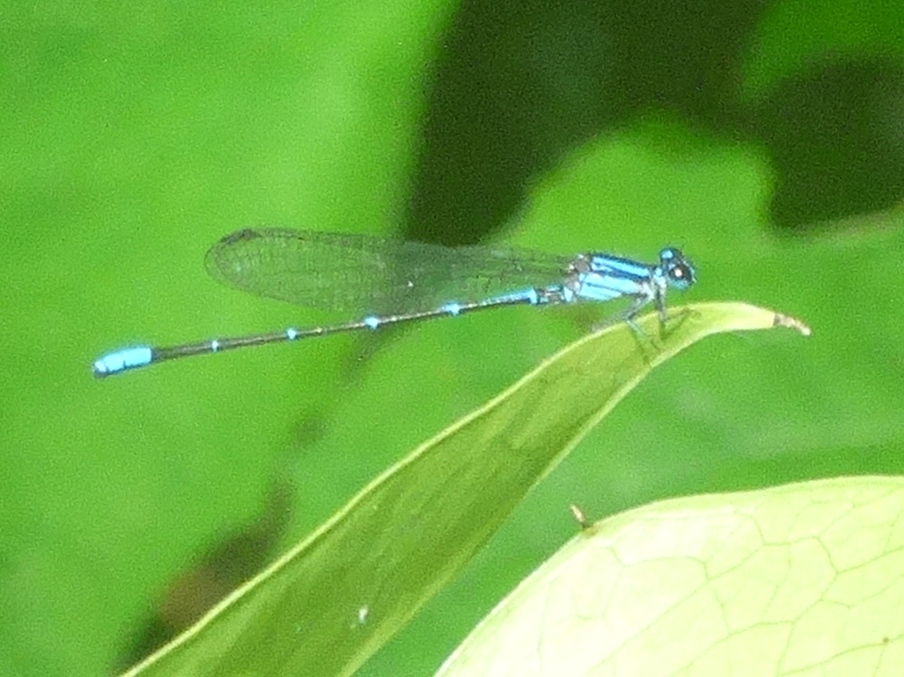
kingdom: Animalia
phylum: Arthropoda
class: Insecta
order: Odonata
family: Coenagrionidae
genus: Argia
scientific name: Argia oculata
